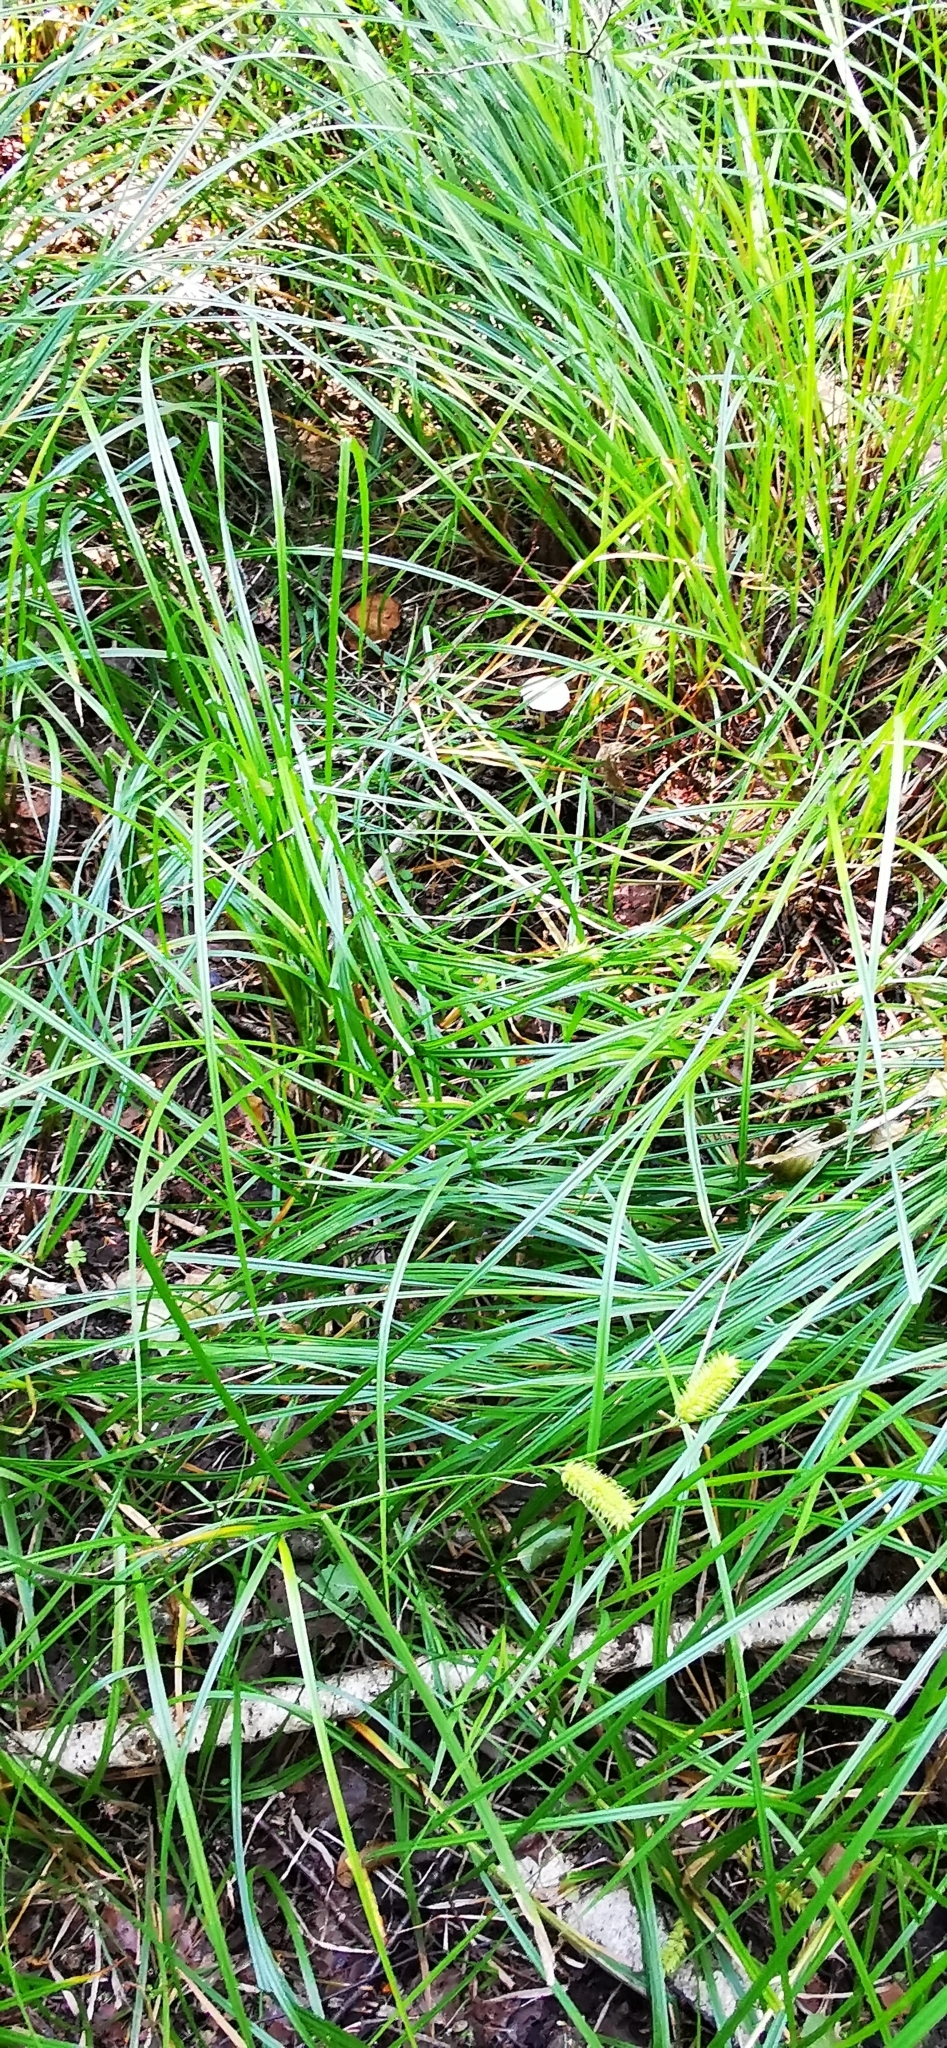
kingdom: Plantae
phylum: Tracheophyta
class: Liliopsida
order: Poales
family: Cyperaceae
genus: Carex
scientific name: Carex vesicaria
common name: Bladder-sedge
